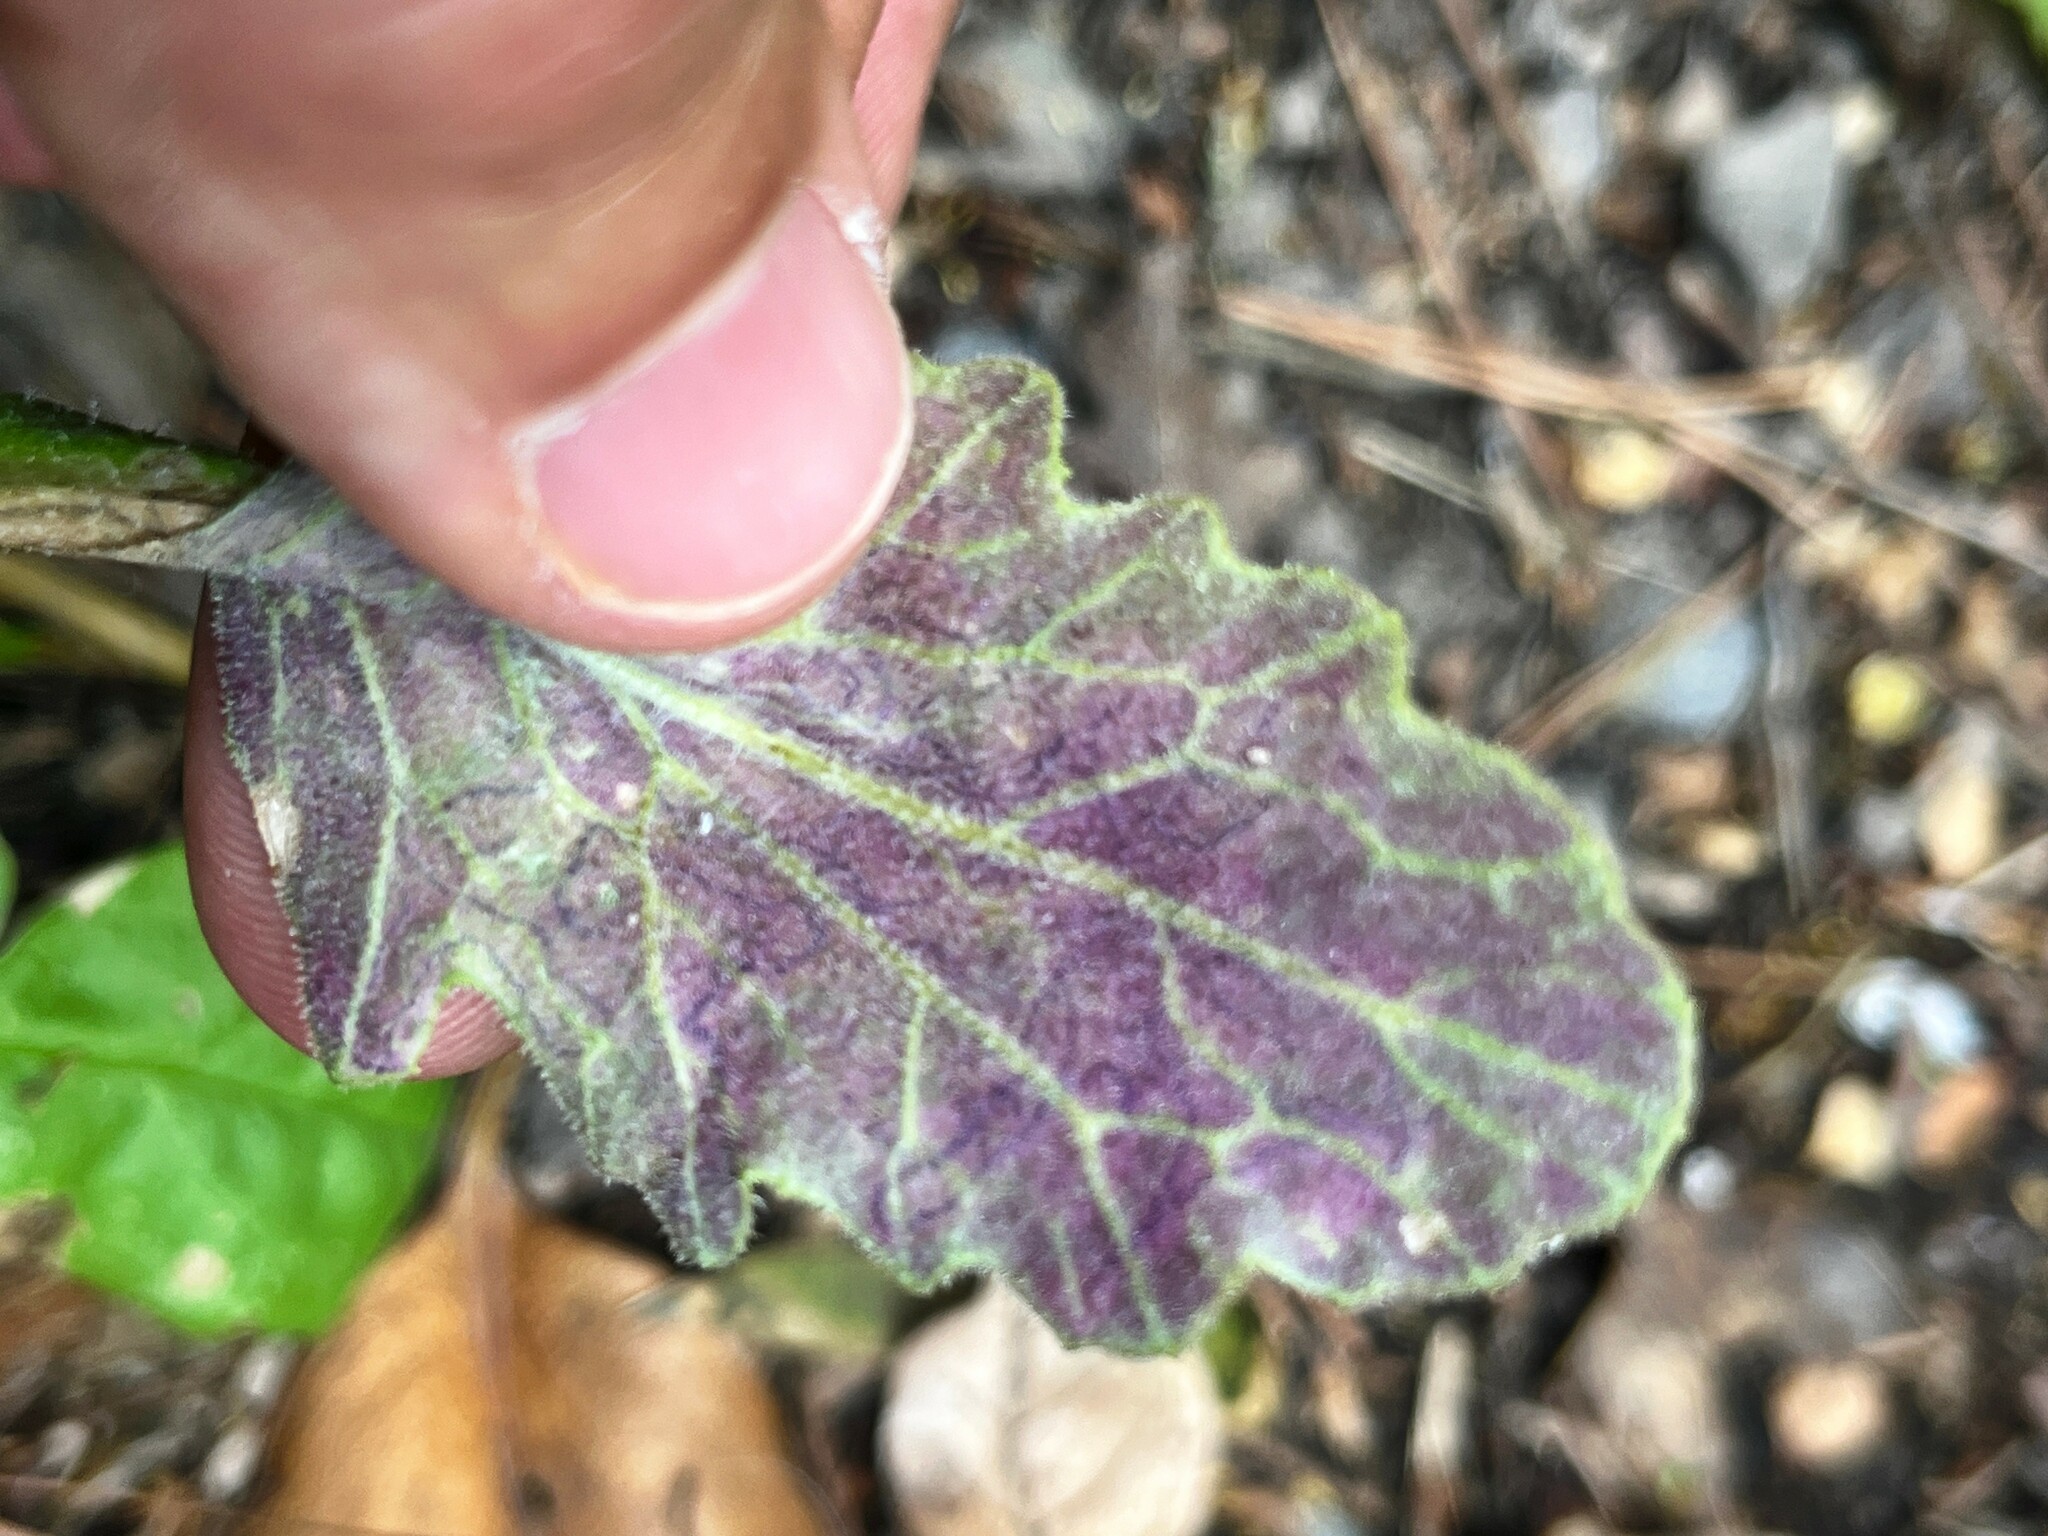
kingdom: Animalia
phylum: Arthropoda
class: Insecta
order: Lepidoptera
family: Nepticulidae
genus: Stigmella
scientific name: Stigmella ogygia
